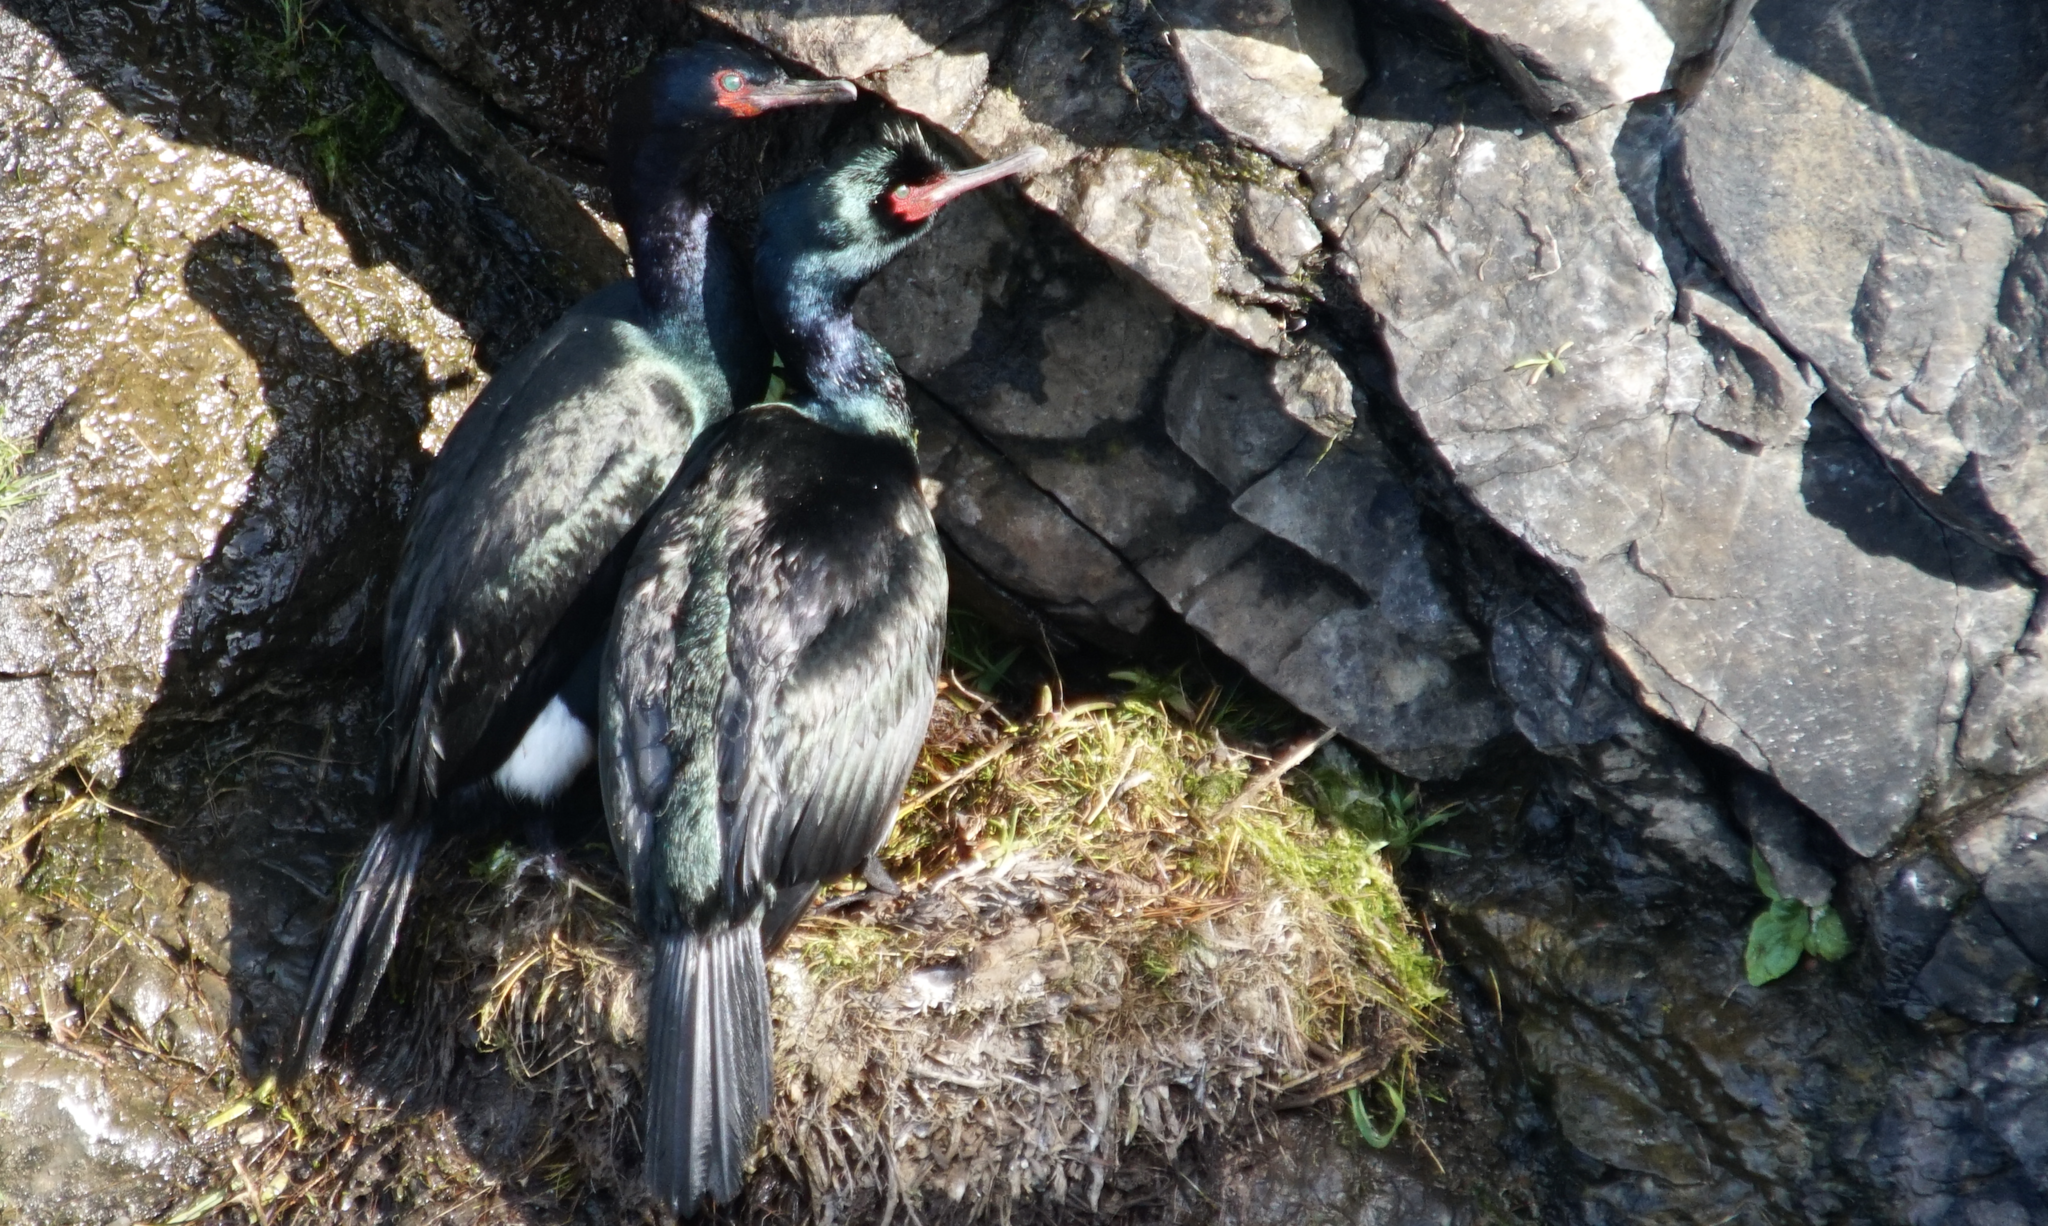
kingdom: Animalia
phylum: Chordata
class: Aves
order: Suliformes
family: Phalacrocoracidae
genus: Phalacrocorax
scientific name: Phalacrocorax pelagicus
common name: Pelagic cormorant
